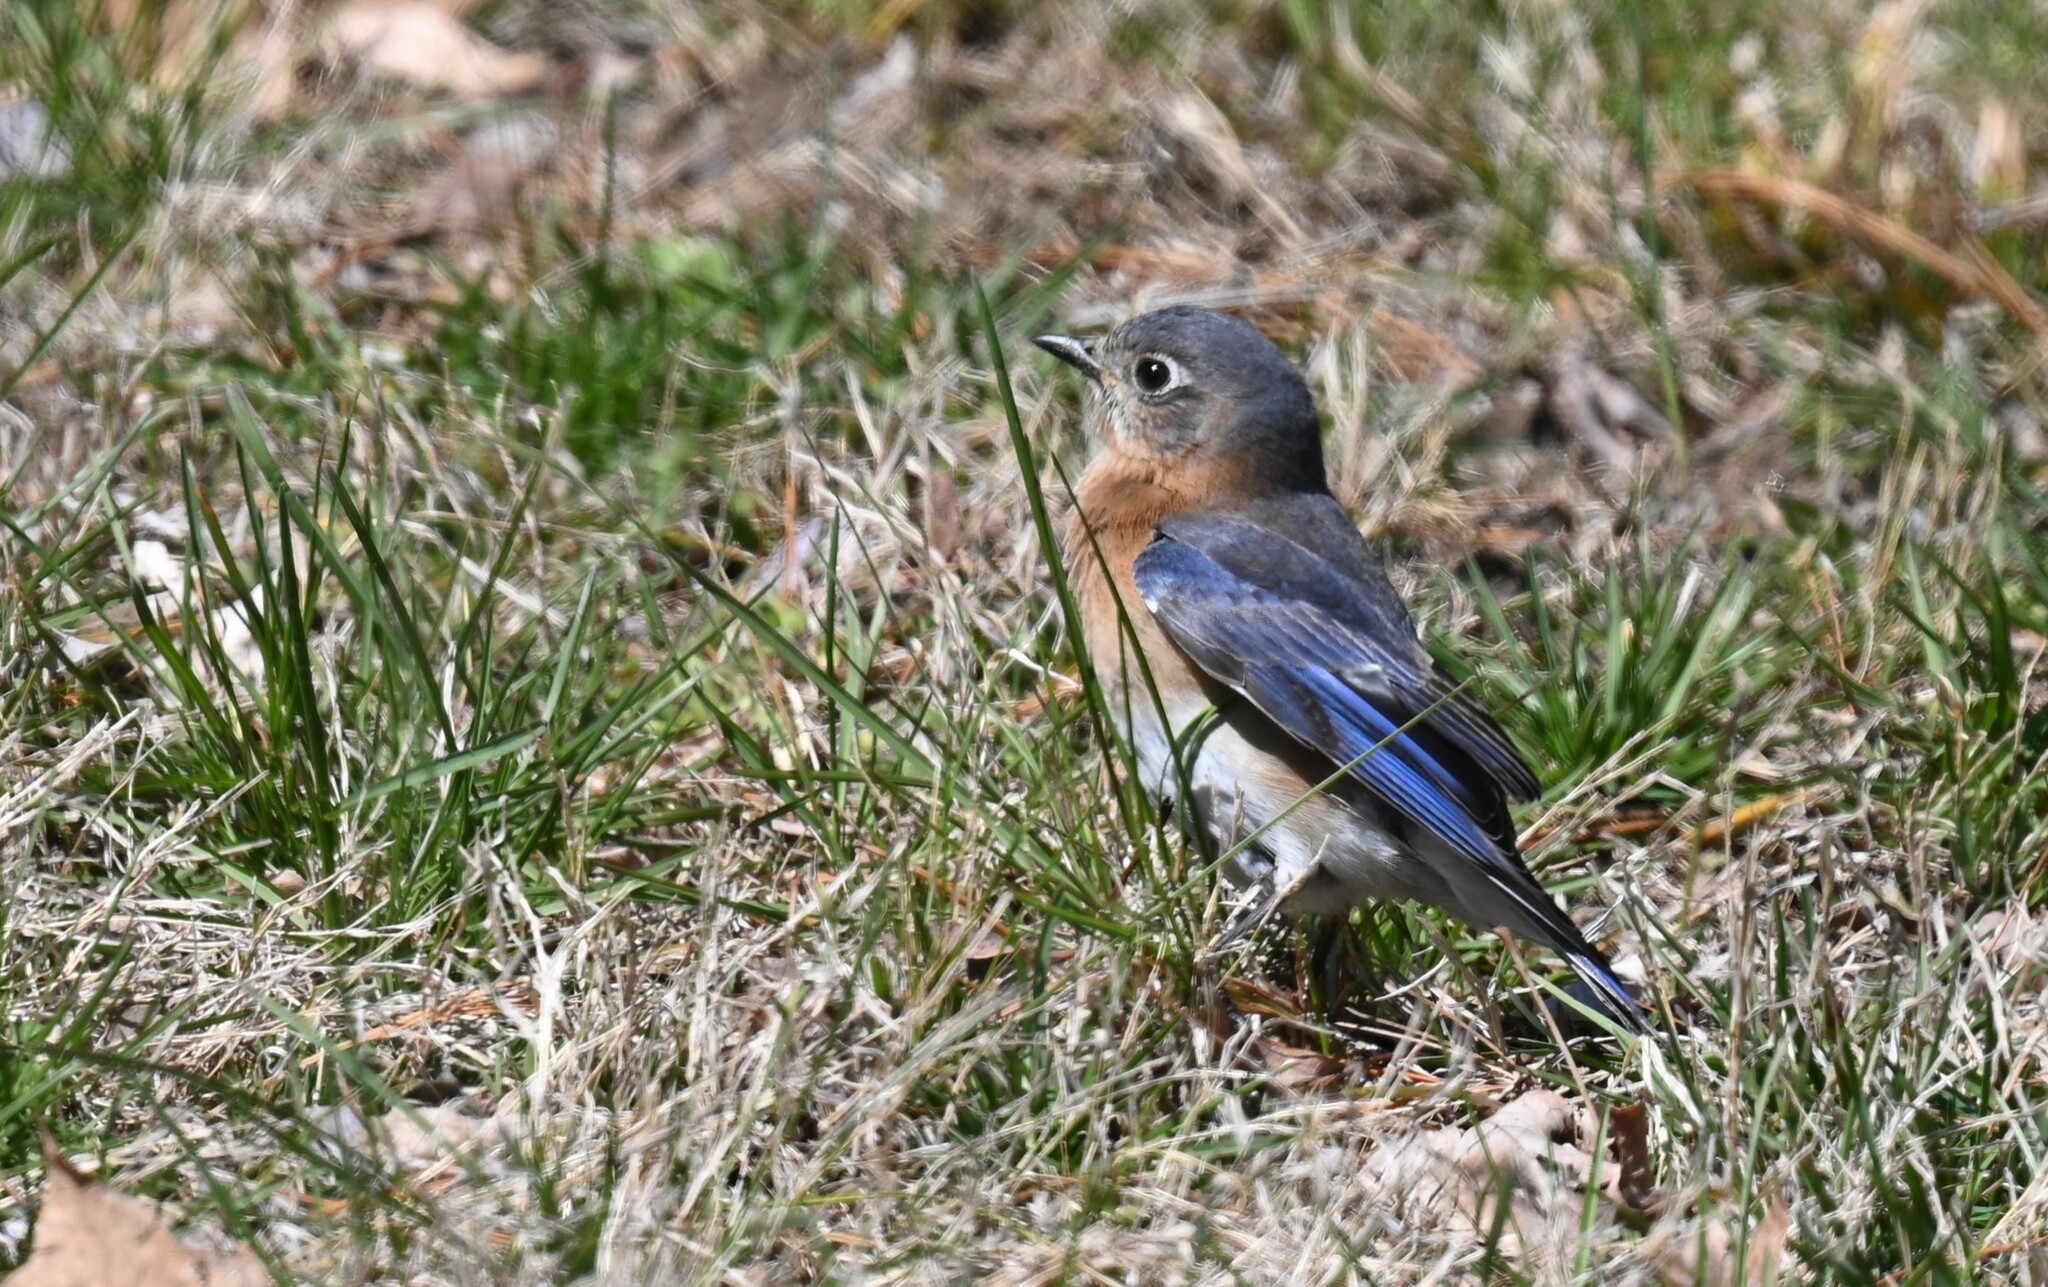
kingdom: Animalia
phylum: Chordata
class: Aves
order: Passeriformes
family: Turdidae
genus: Sialia
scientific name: Sialia sialis
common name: Eastern bluebird
